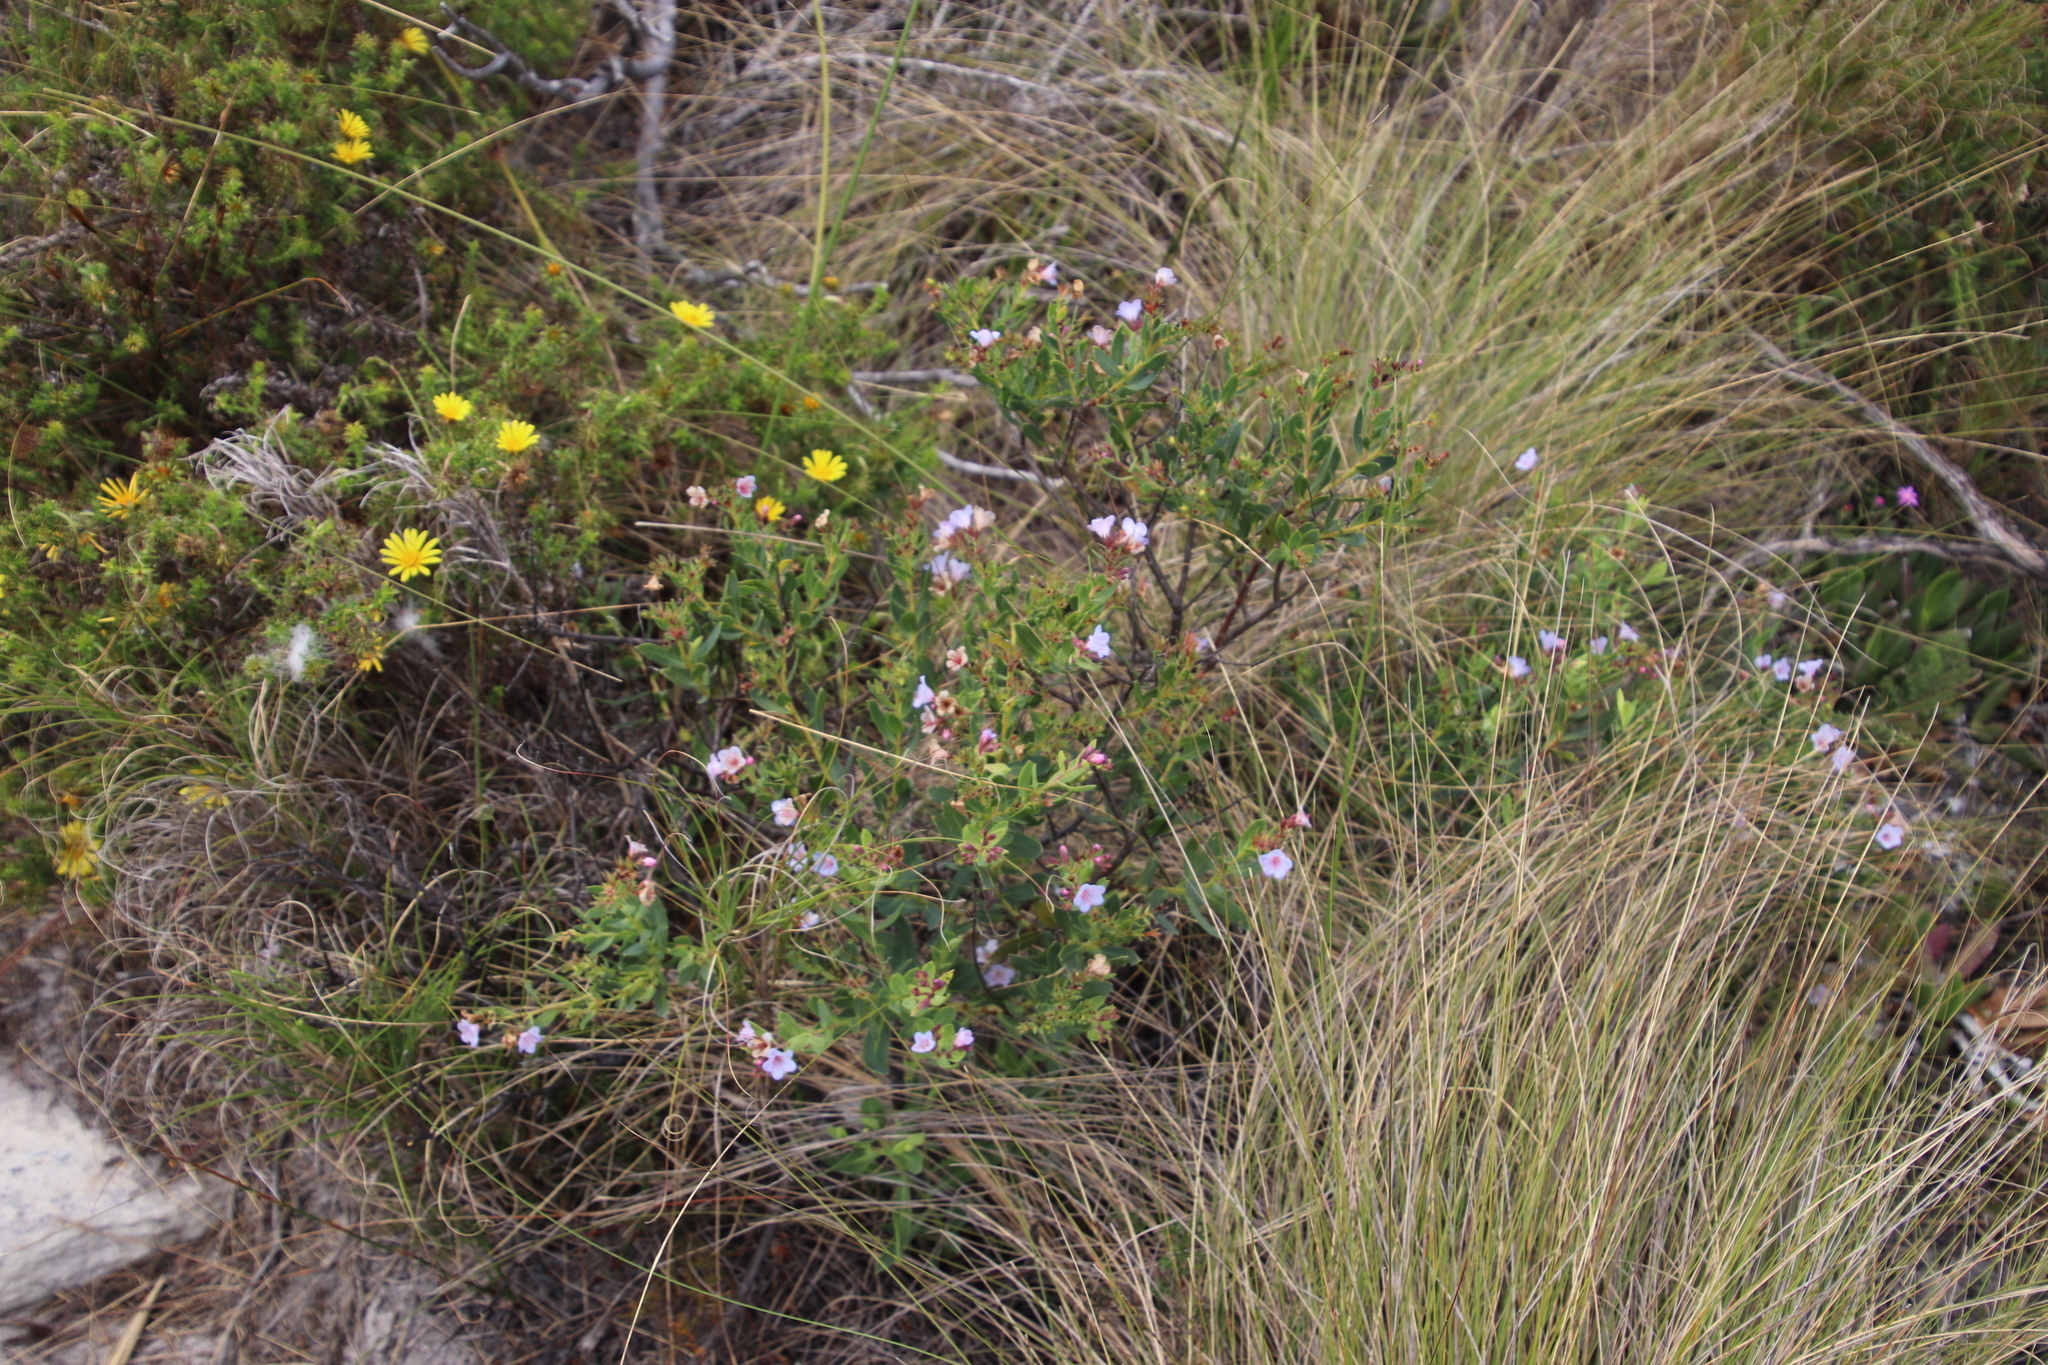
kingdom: Plantae
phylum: Tracheophyta
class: Magnoliopsida
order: Boraginales
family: Boraginaceae
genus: Lobostemon
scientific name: Lobostemon glaucophyllus
